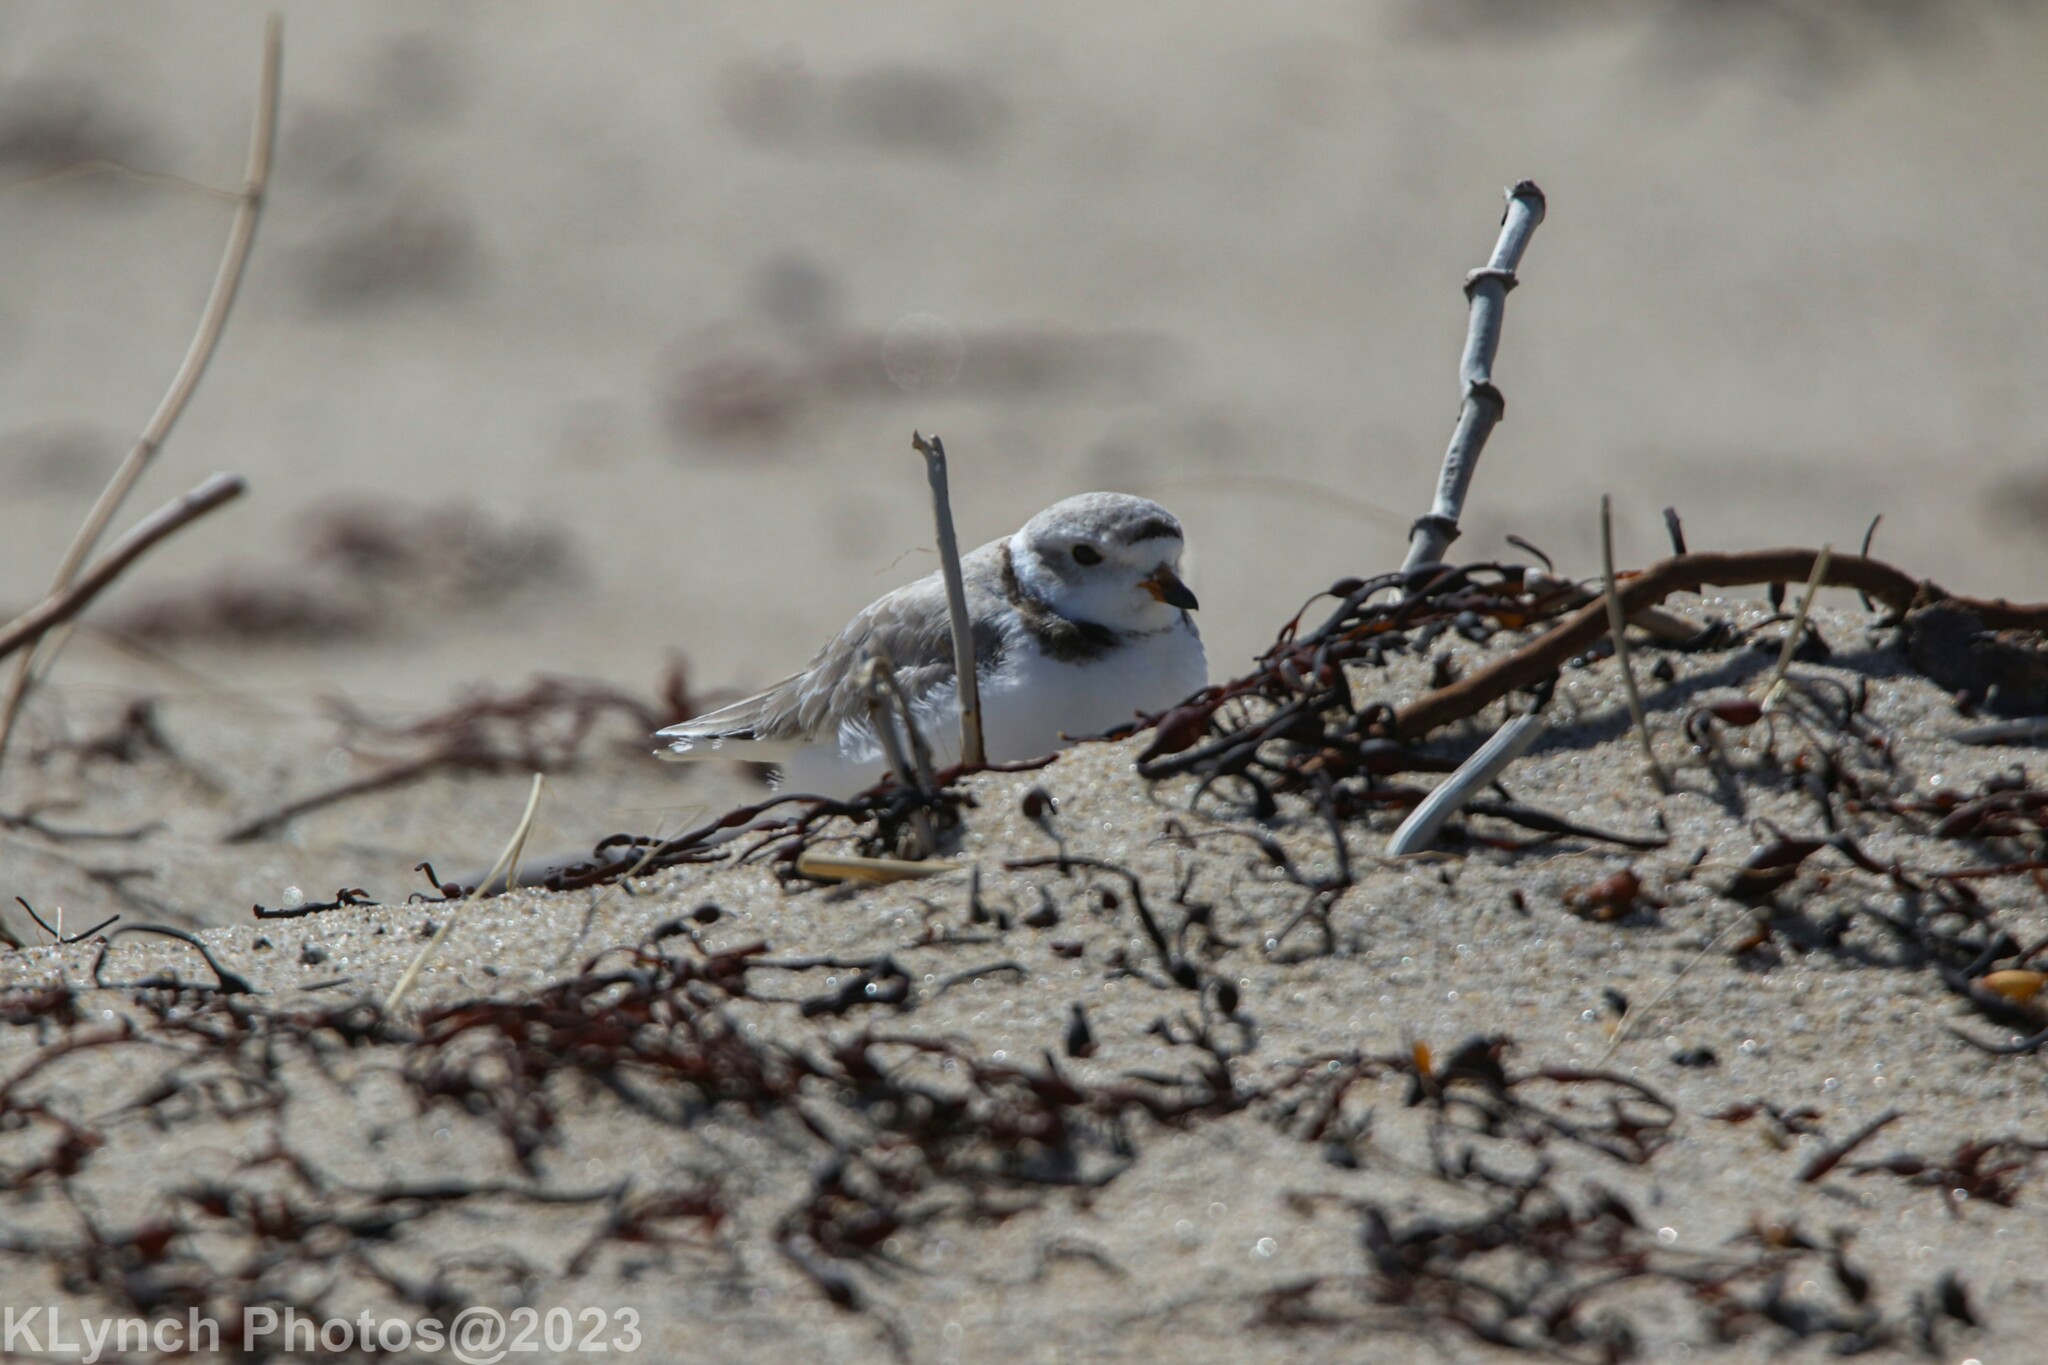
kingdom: Animalia
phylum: Chordata
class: Aves
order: Charadriiformes
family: Charadriidae
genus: Charadrius
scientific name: Charadrius melodus
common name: Piping plover
